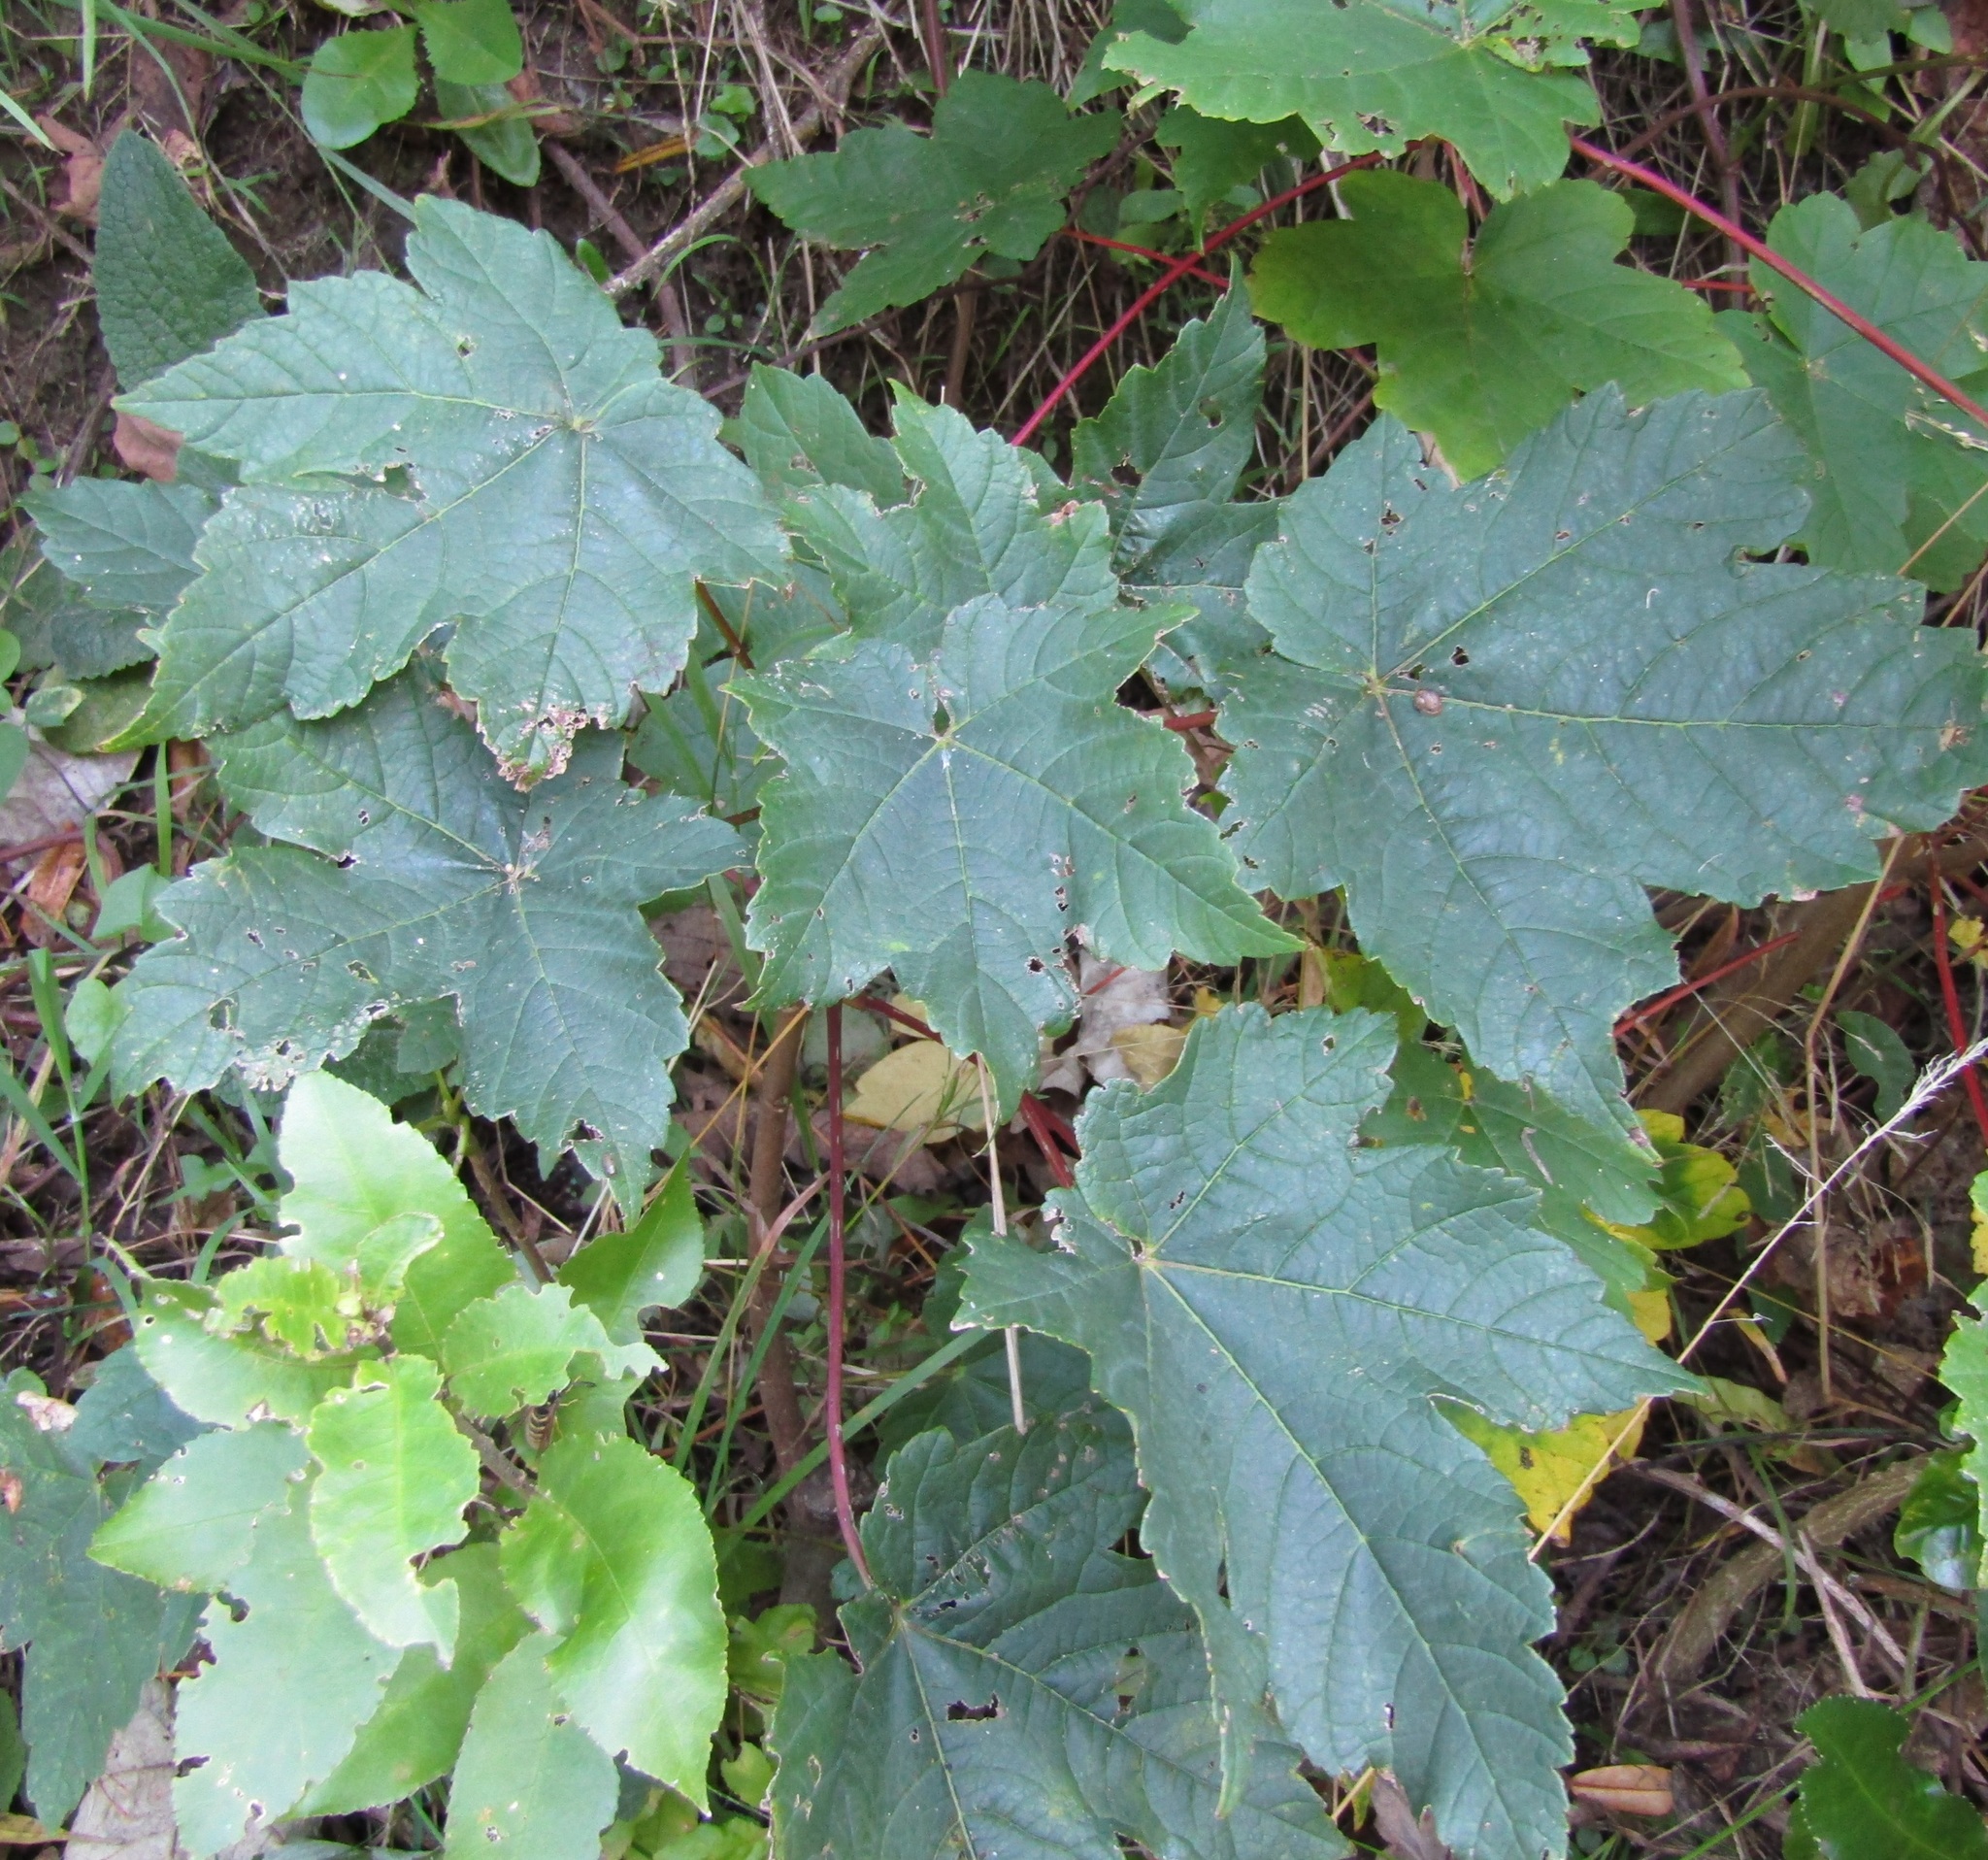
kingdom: Plantae
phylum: Tracheophyta
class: Magnoliopsida
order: Sapindales
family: Sapindaceae
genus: Acer
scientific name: Acer pseudoplatanus
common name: Sycamore
